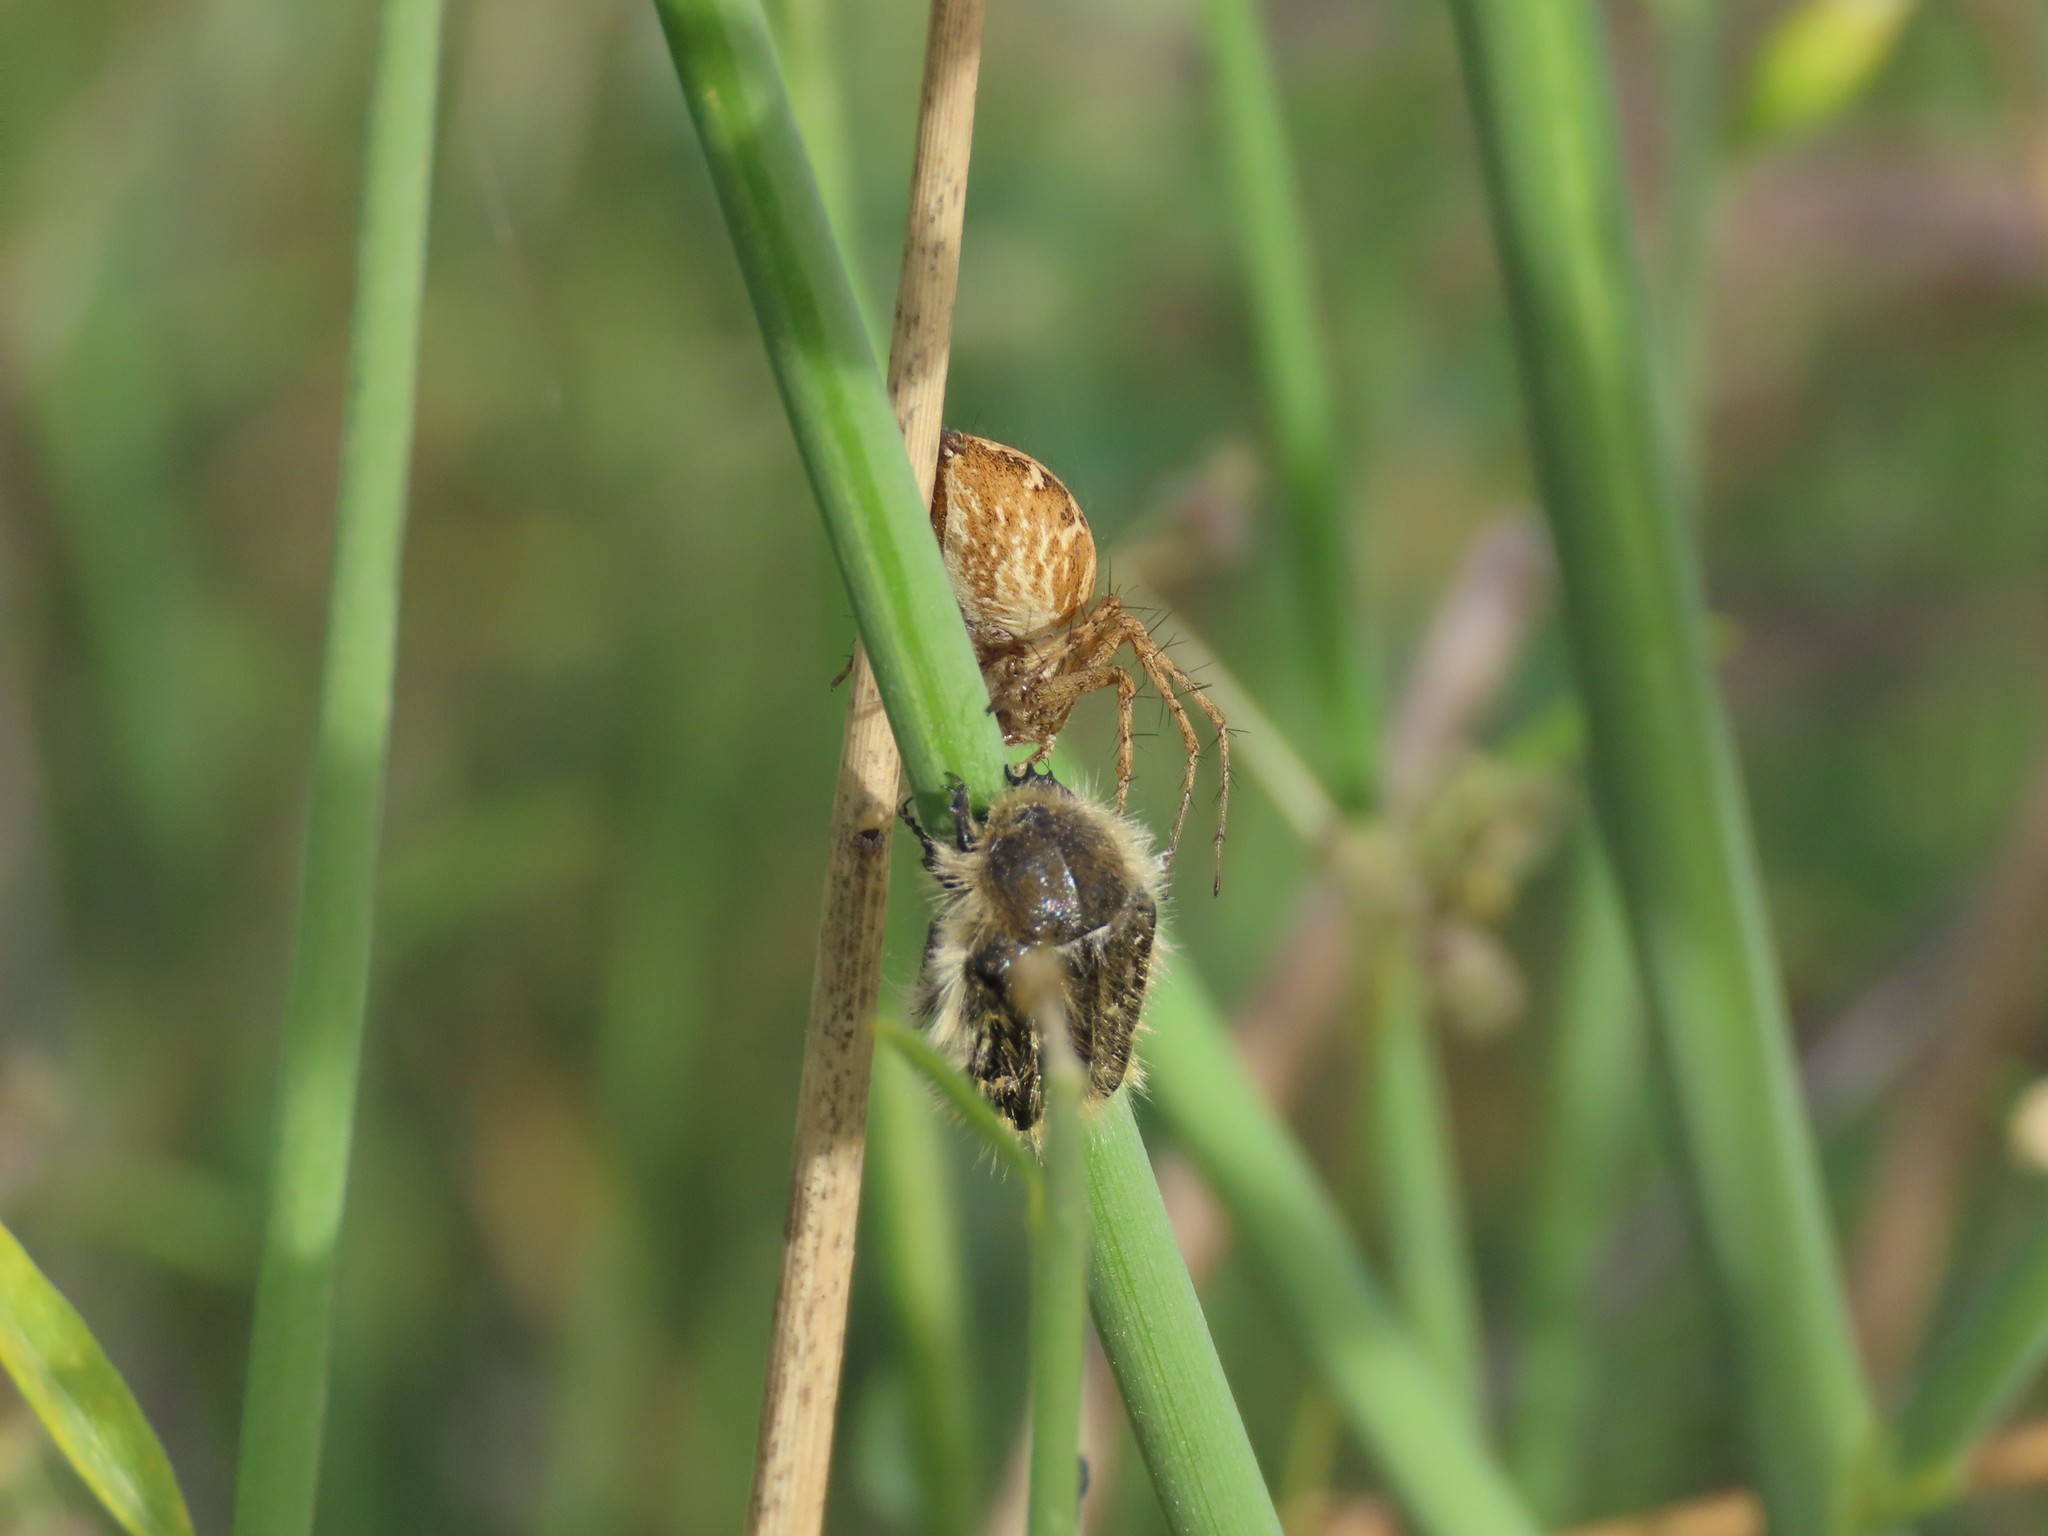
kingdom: Animalia
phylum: Arthropoda
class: Insecta
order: Coleoptera
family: Scarabaeidae
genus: Tropinota
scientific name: Tropinota squalida
